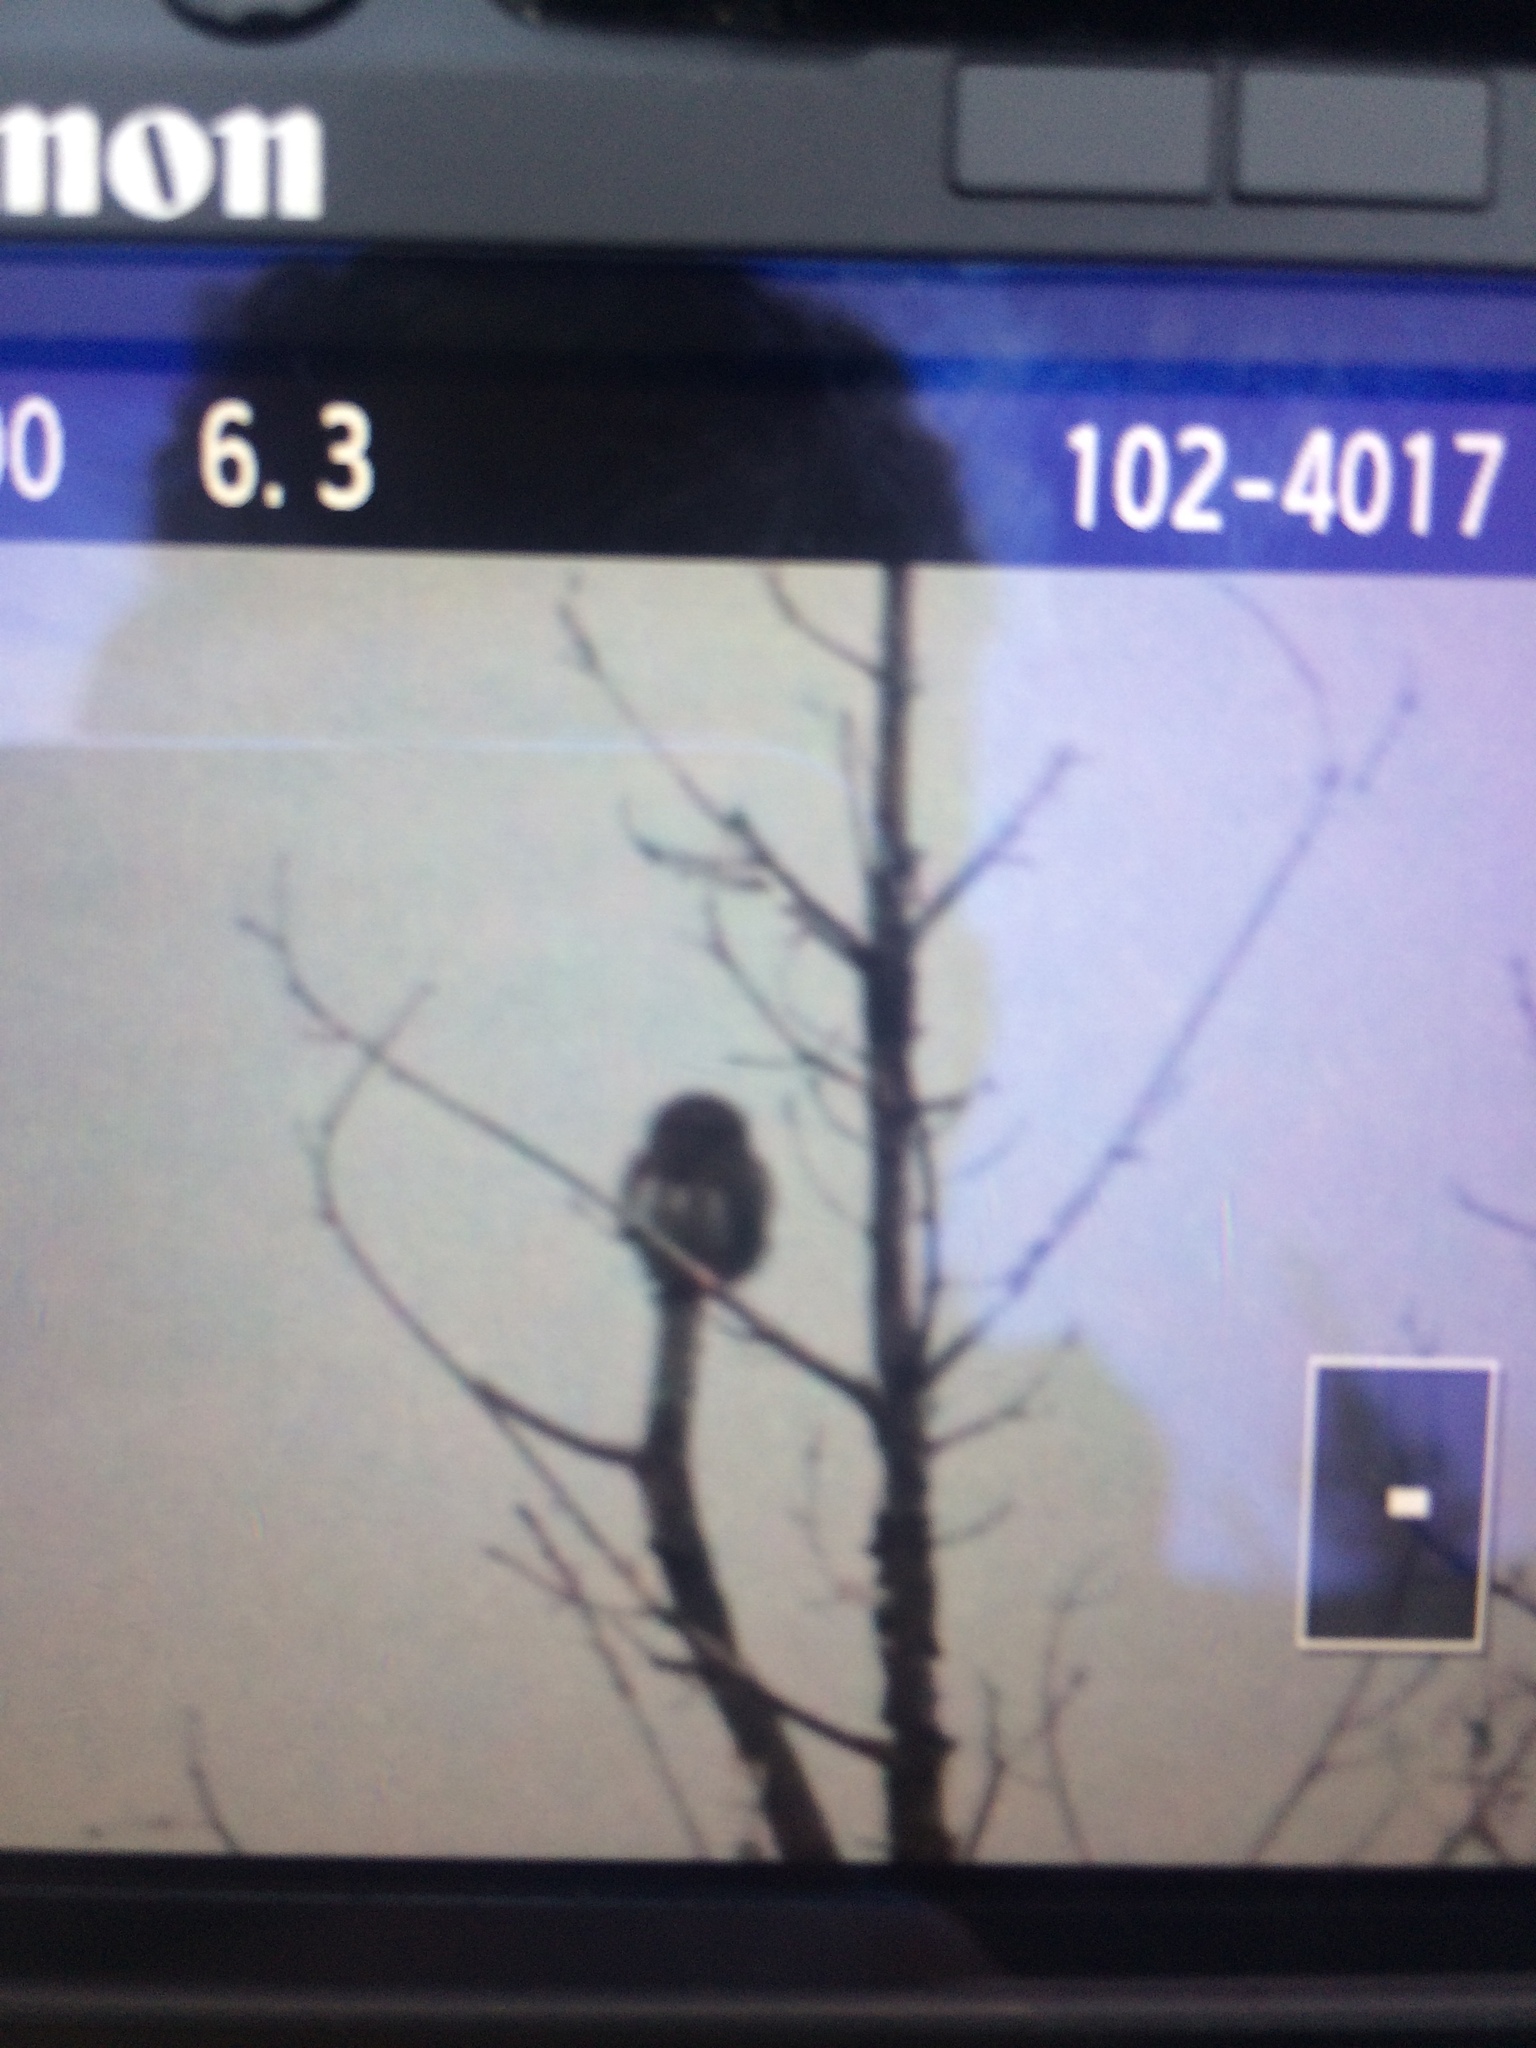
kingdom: Animalia
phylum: Chordata
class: Aves
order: Strigiformes
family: Strigidae
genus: Glaucidium
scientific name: Glaucidium gnoma
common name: Northern pygmy-owl
